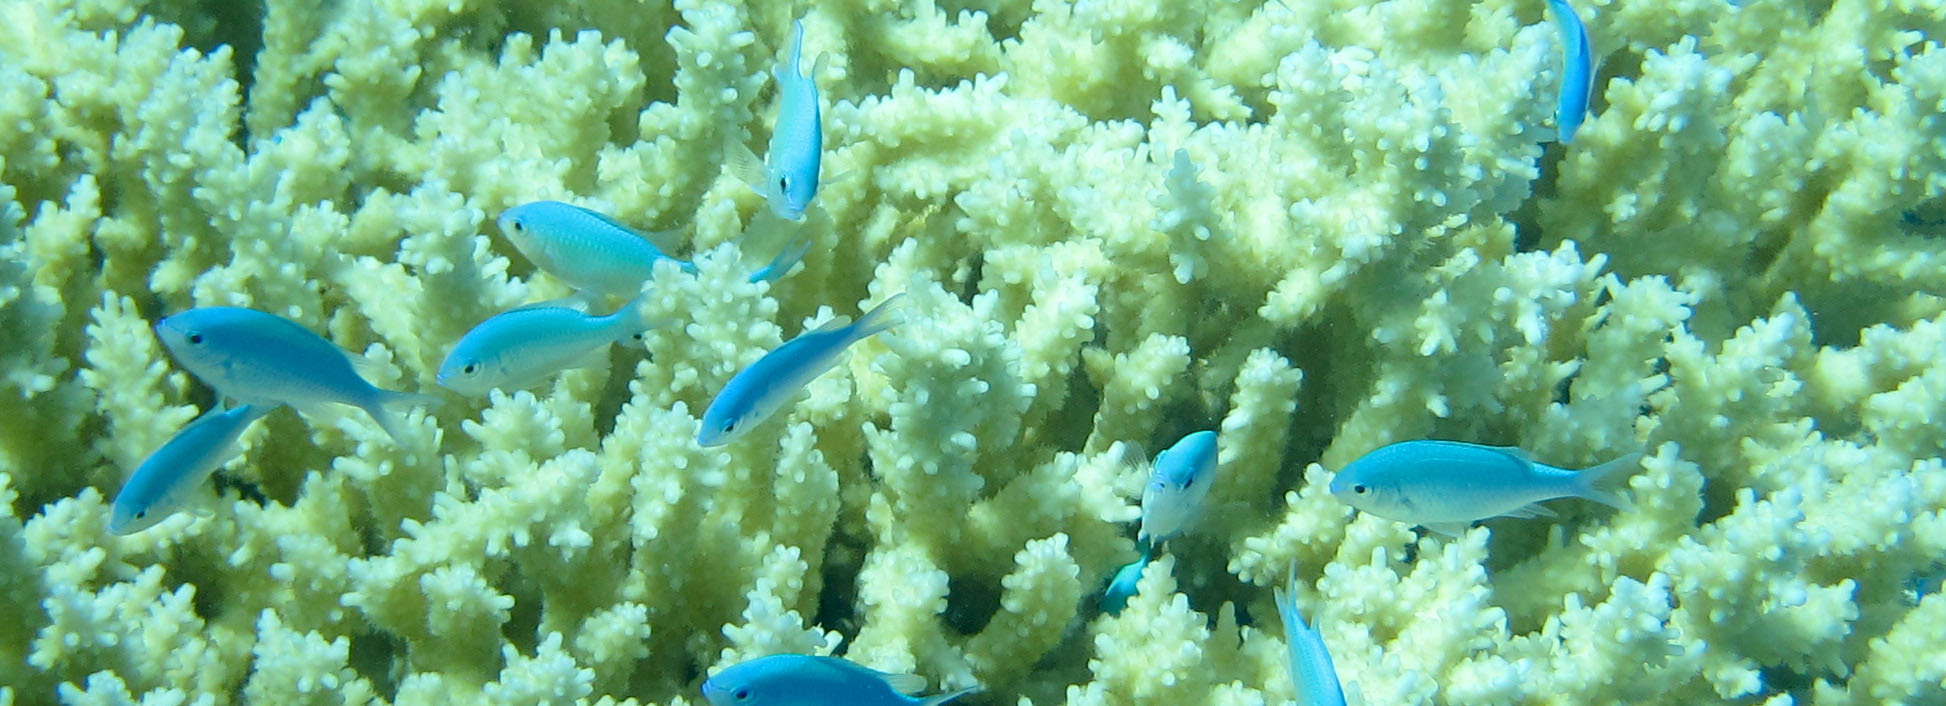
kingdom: Animalia
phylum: Chordata
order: Perciformes
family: Pomacentridae
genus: Chromis
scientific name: Chromis viridis
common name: Blue-green chromis
